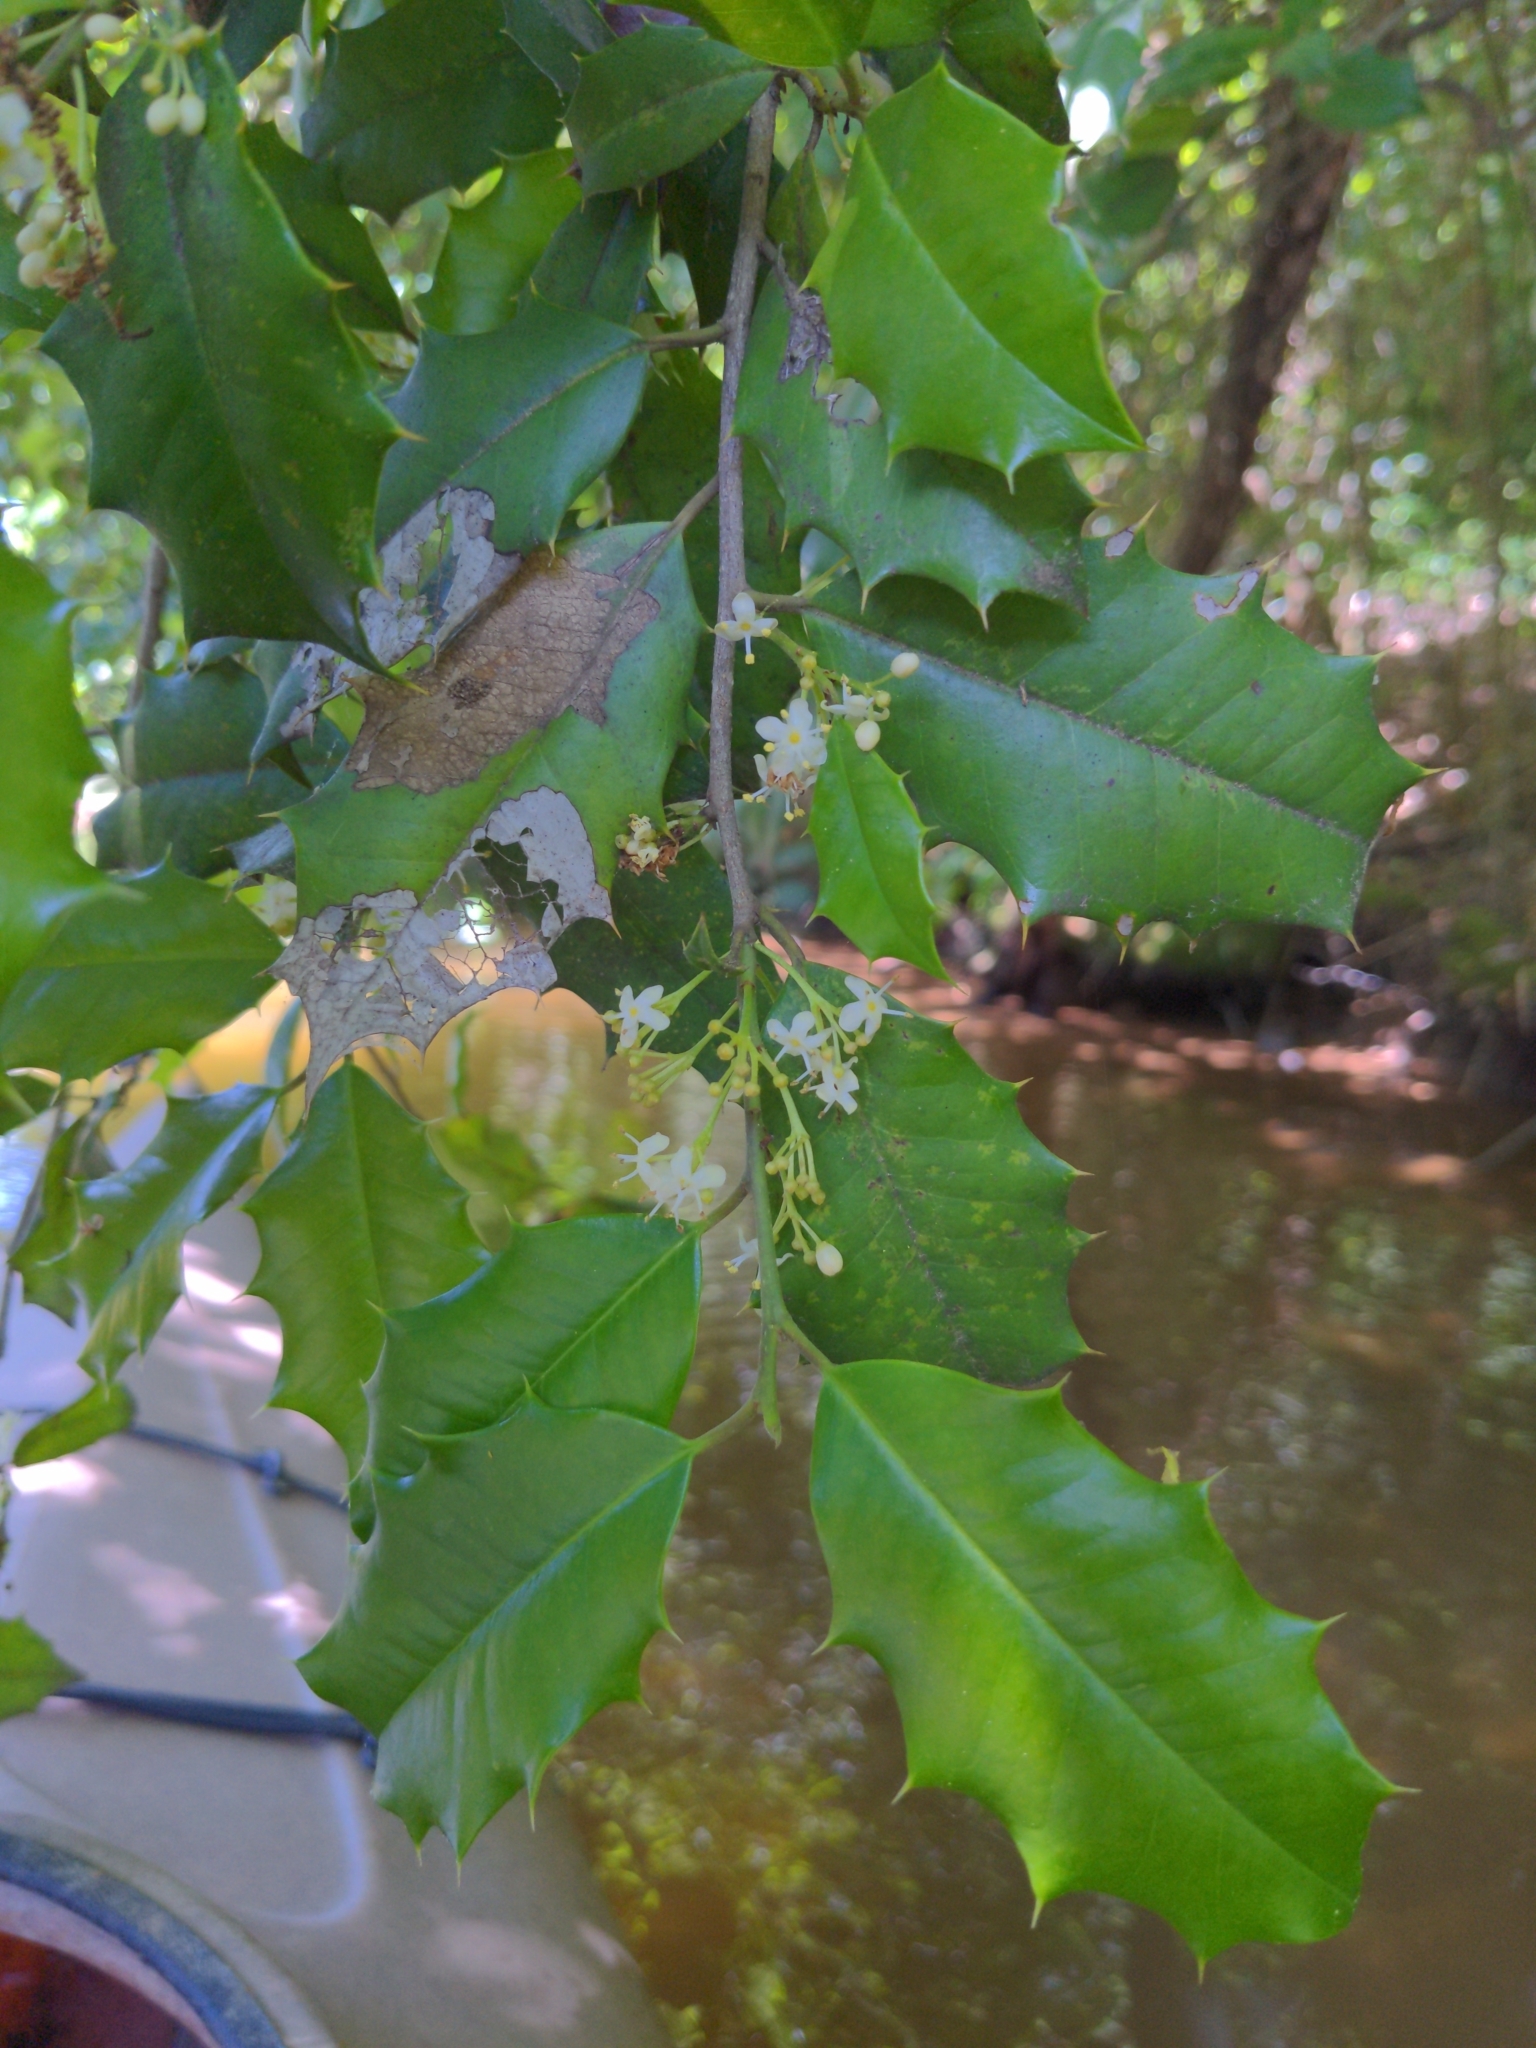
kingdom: Plantae
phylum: Tracheophyta
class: Magnoliopsida
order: Aquifoliales
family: Aquifoliaceae
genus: Ilex
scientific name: Ilex opaca
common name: American holly
